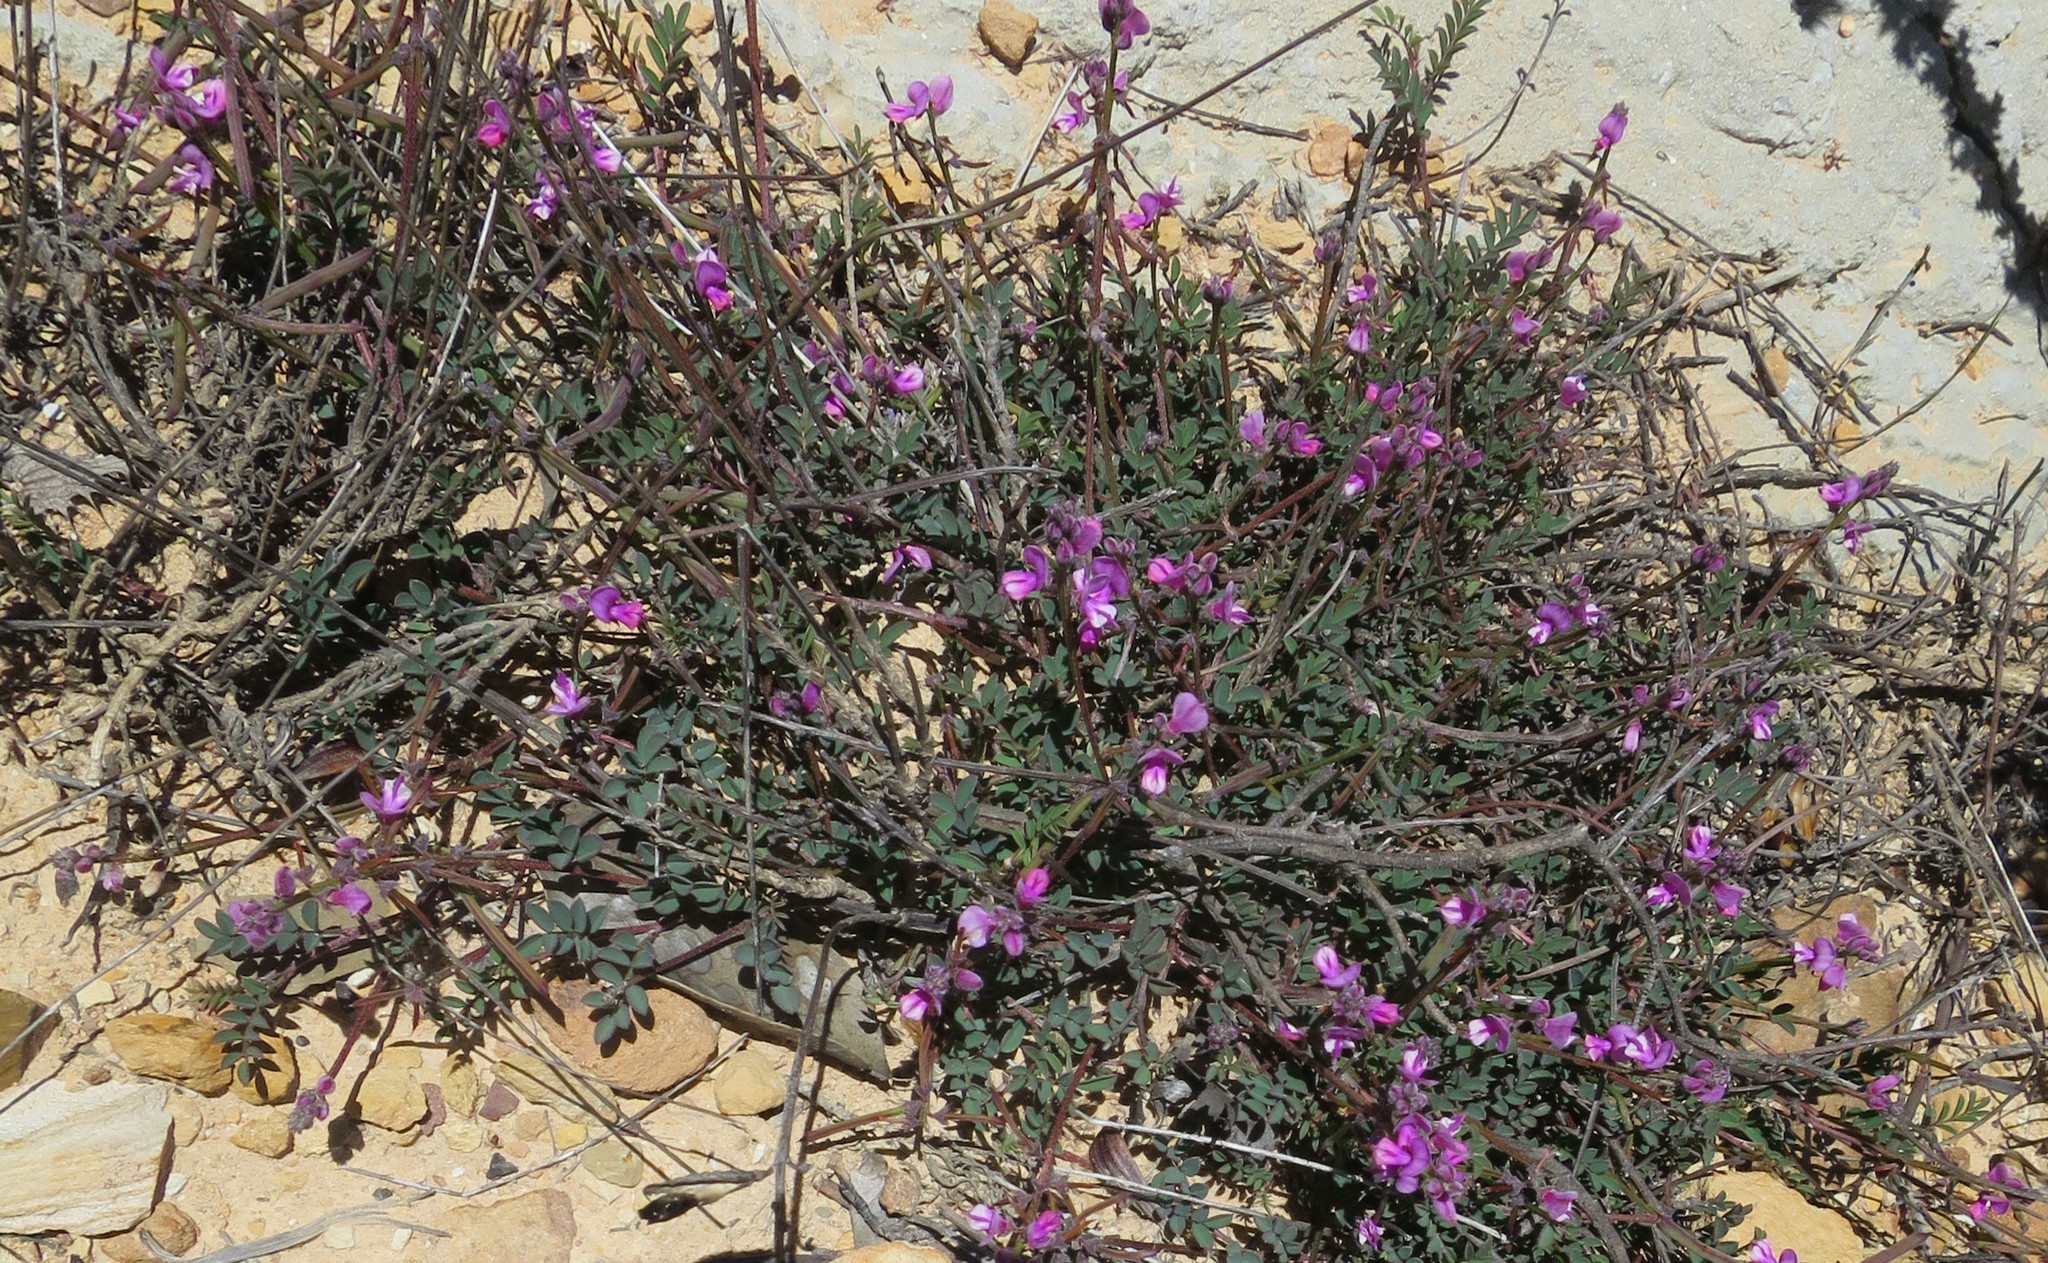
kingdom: Plantae
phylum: Tracheophyta
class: Magnoliopsida
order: Fabales
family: Fabaceae
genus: Indigofera
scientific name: Indigofera declinata
